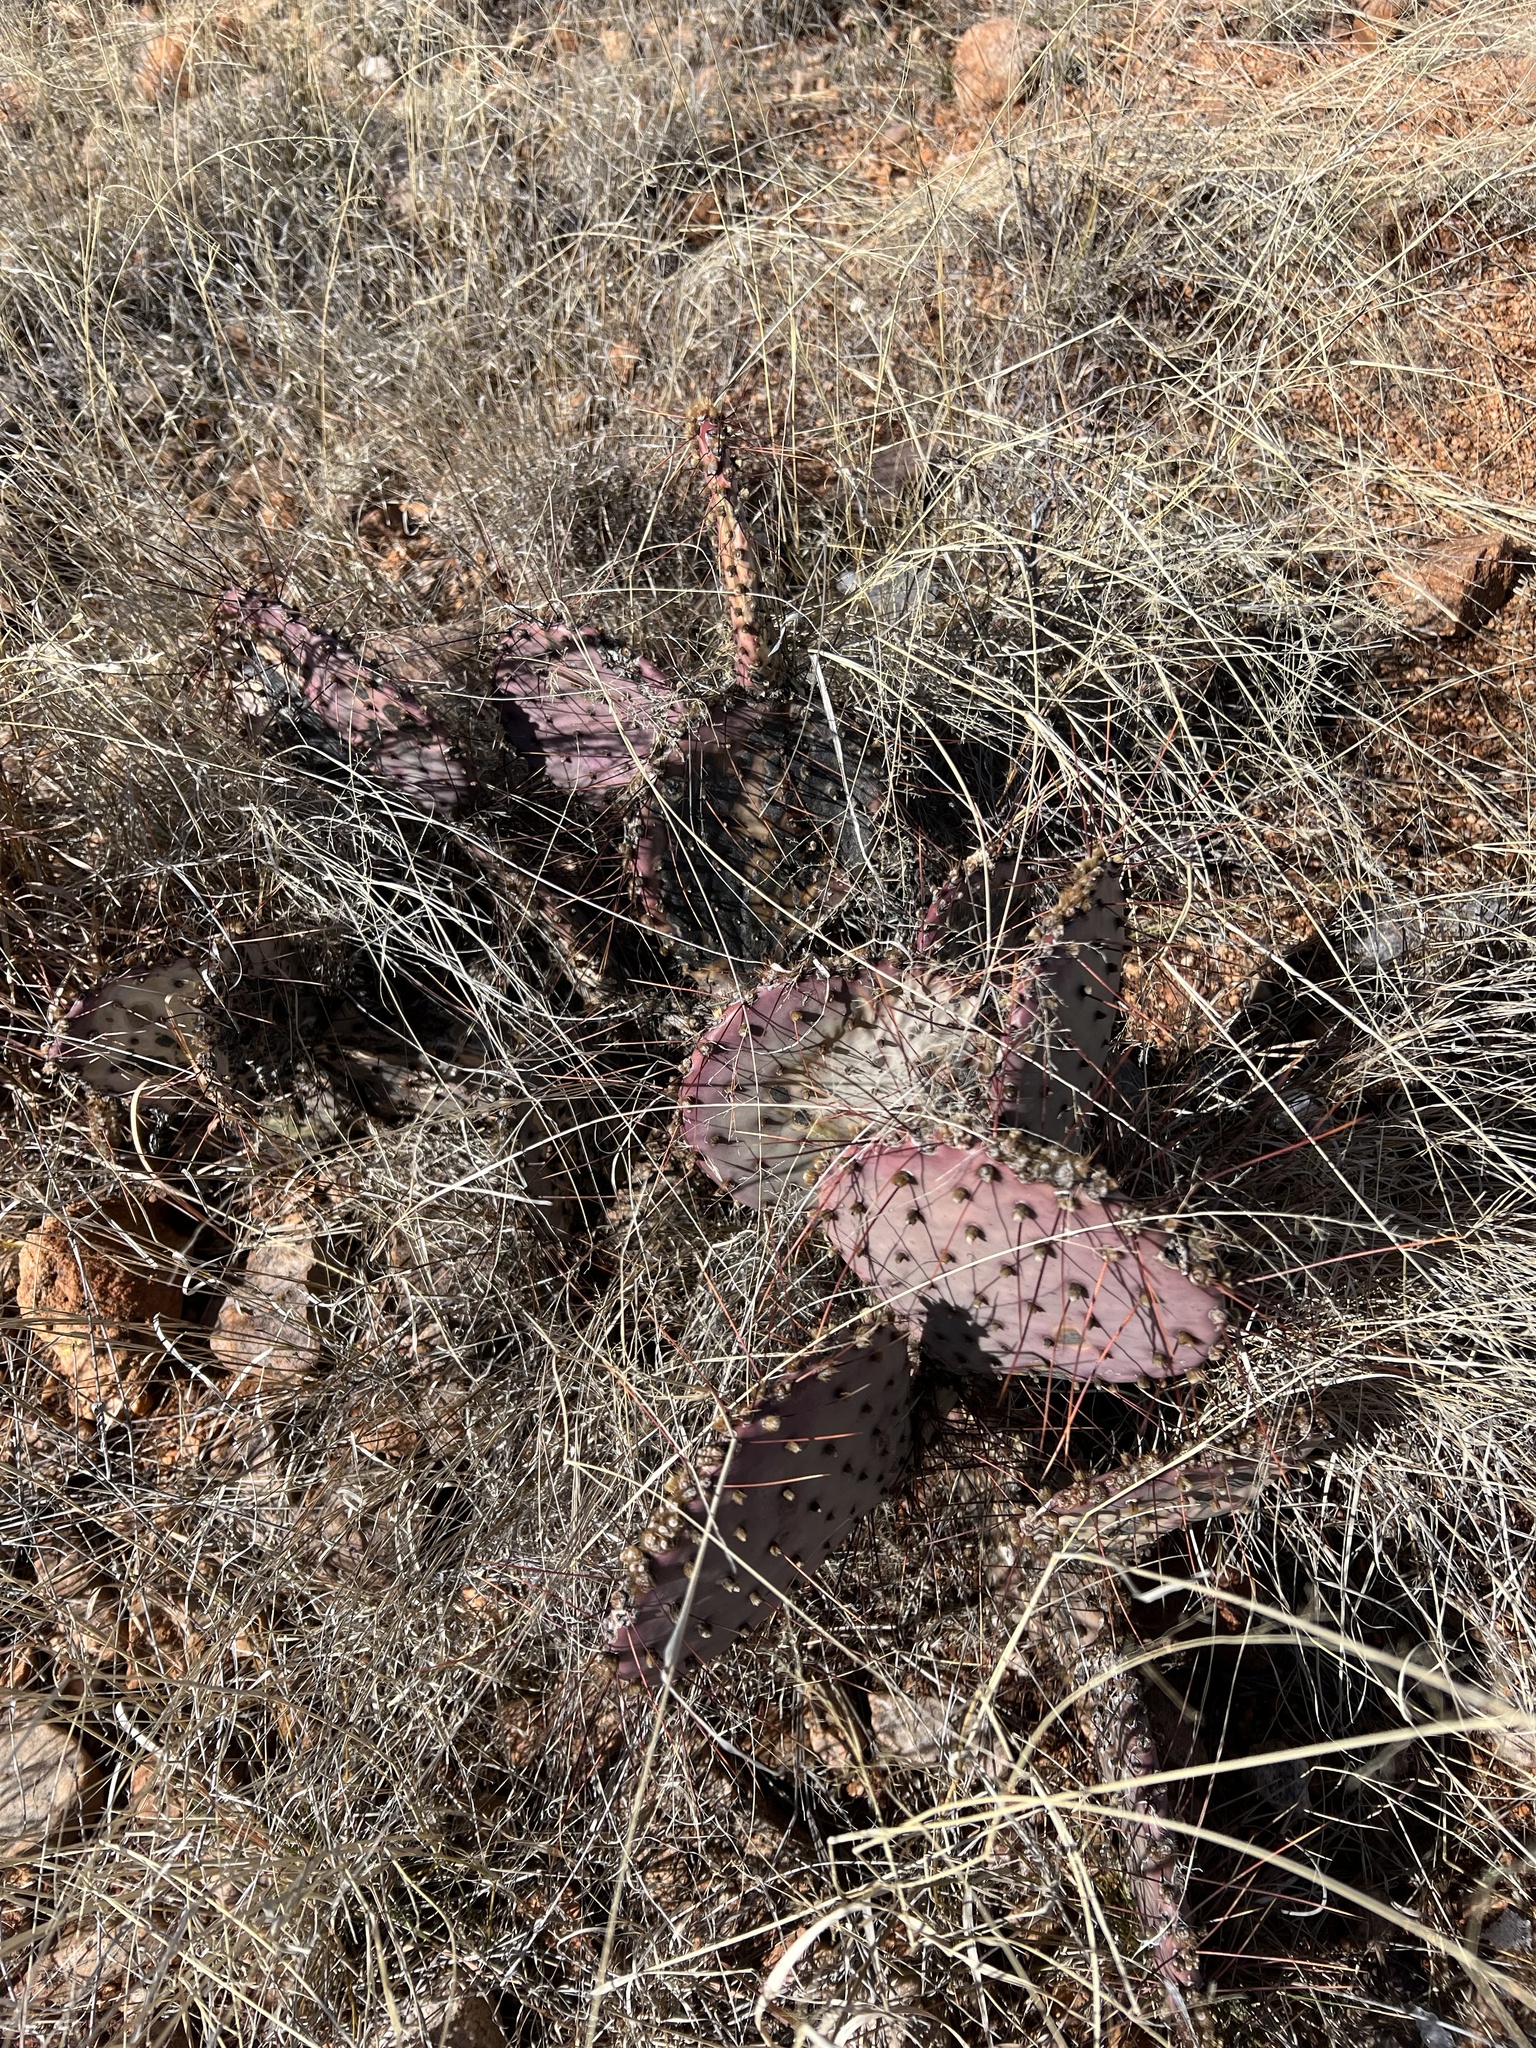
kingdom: Plantae
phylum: Tracheophyta
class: Magnoliopsida
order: Caryophyllales
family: Cactaceae
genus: Opuntia
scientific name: Opuntia macrocentra
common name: Purple prickly-pear
